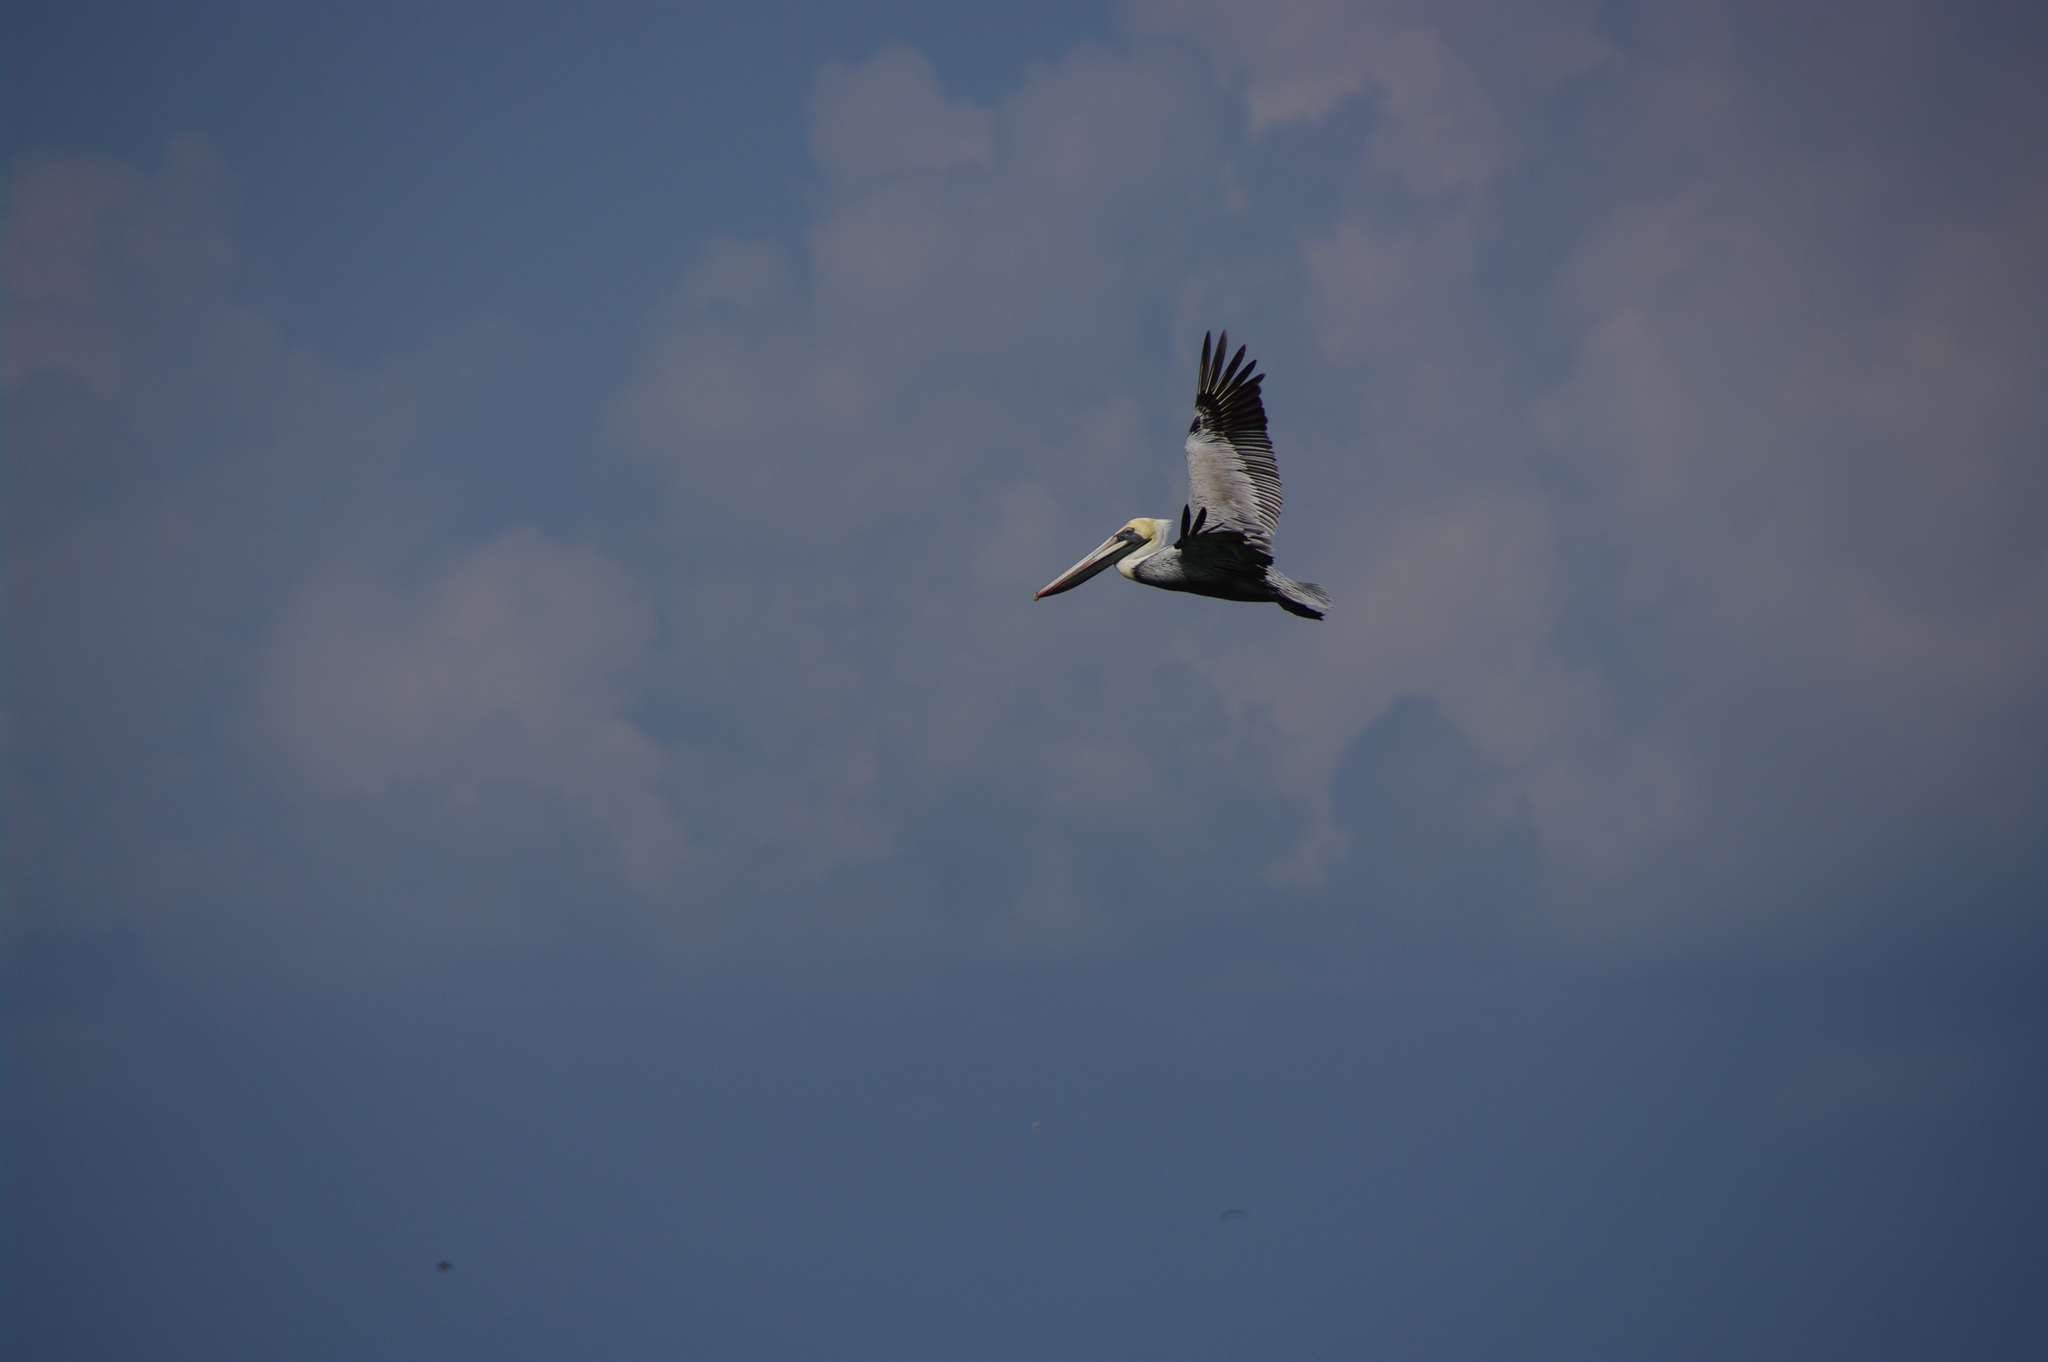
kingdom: Animalia
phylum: Chordata
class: Aves
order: Pelecaniformes
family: Pelecanidae
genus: Pelecanus
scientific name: Pelecanus occidentalis
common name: Brown pelican
